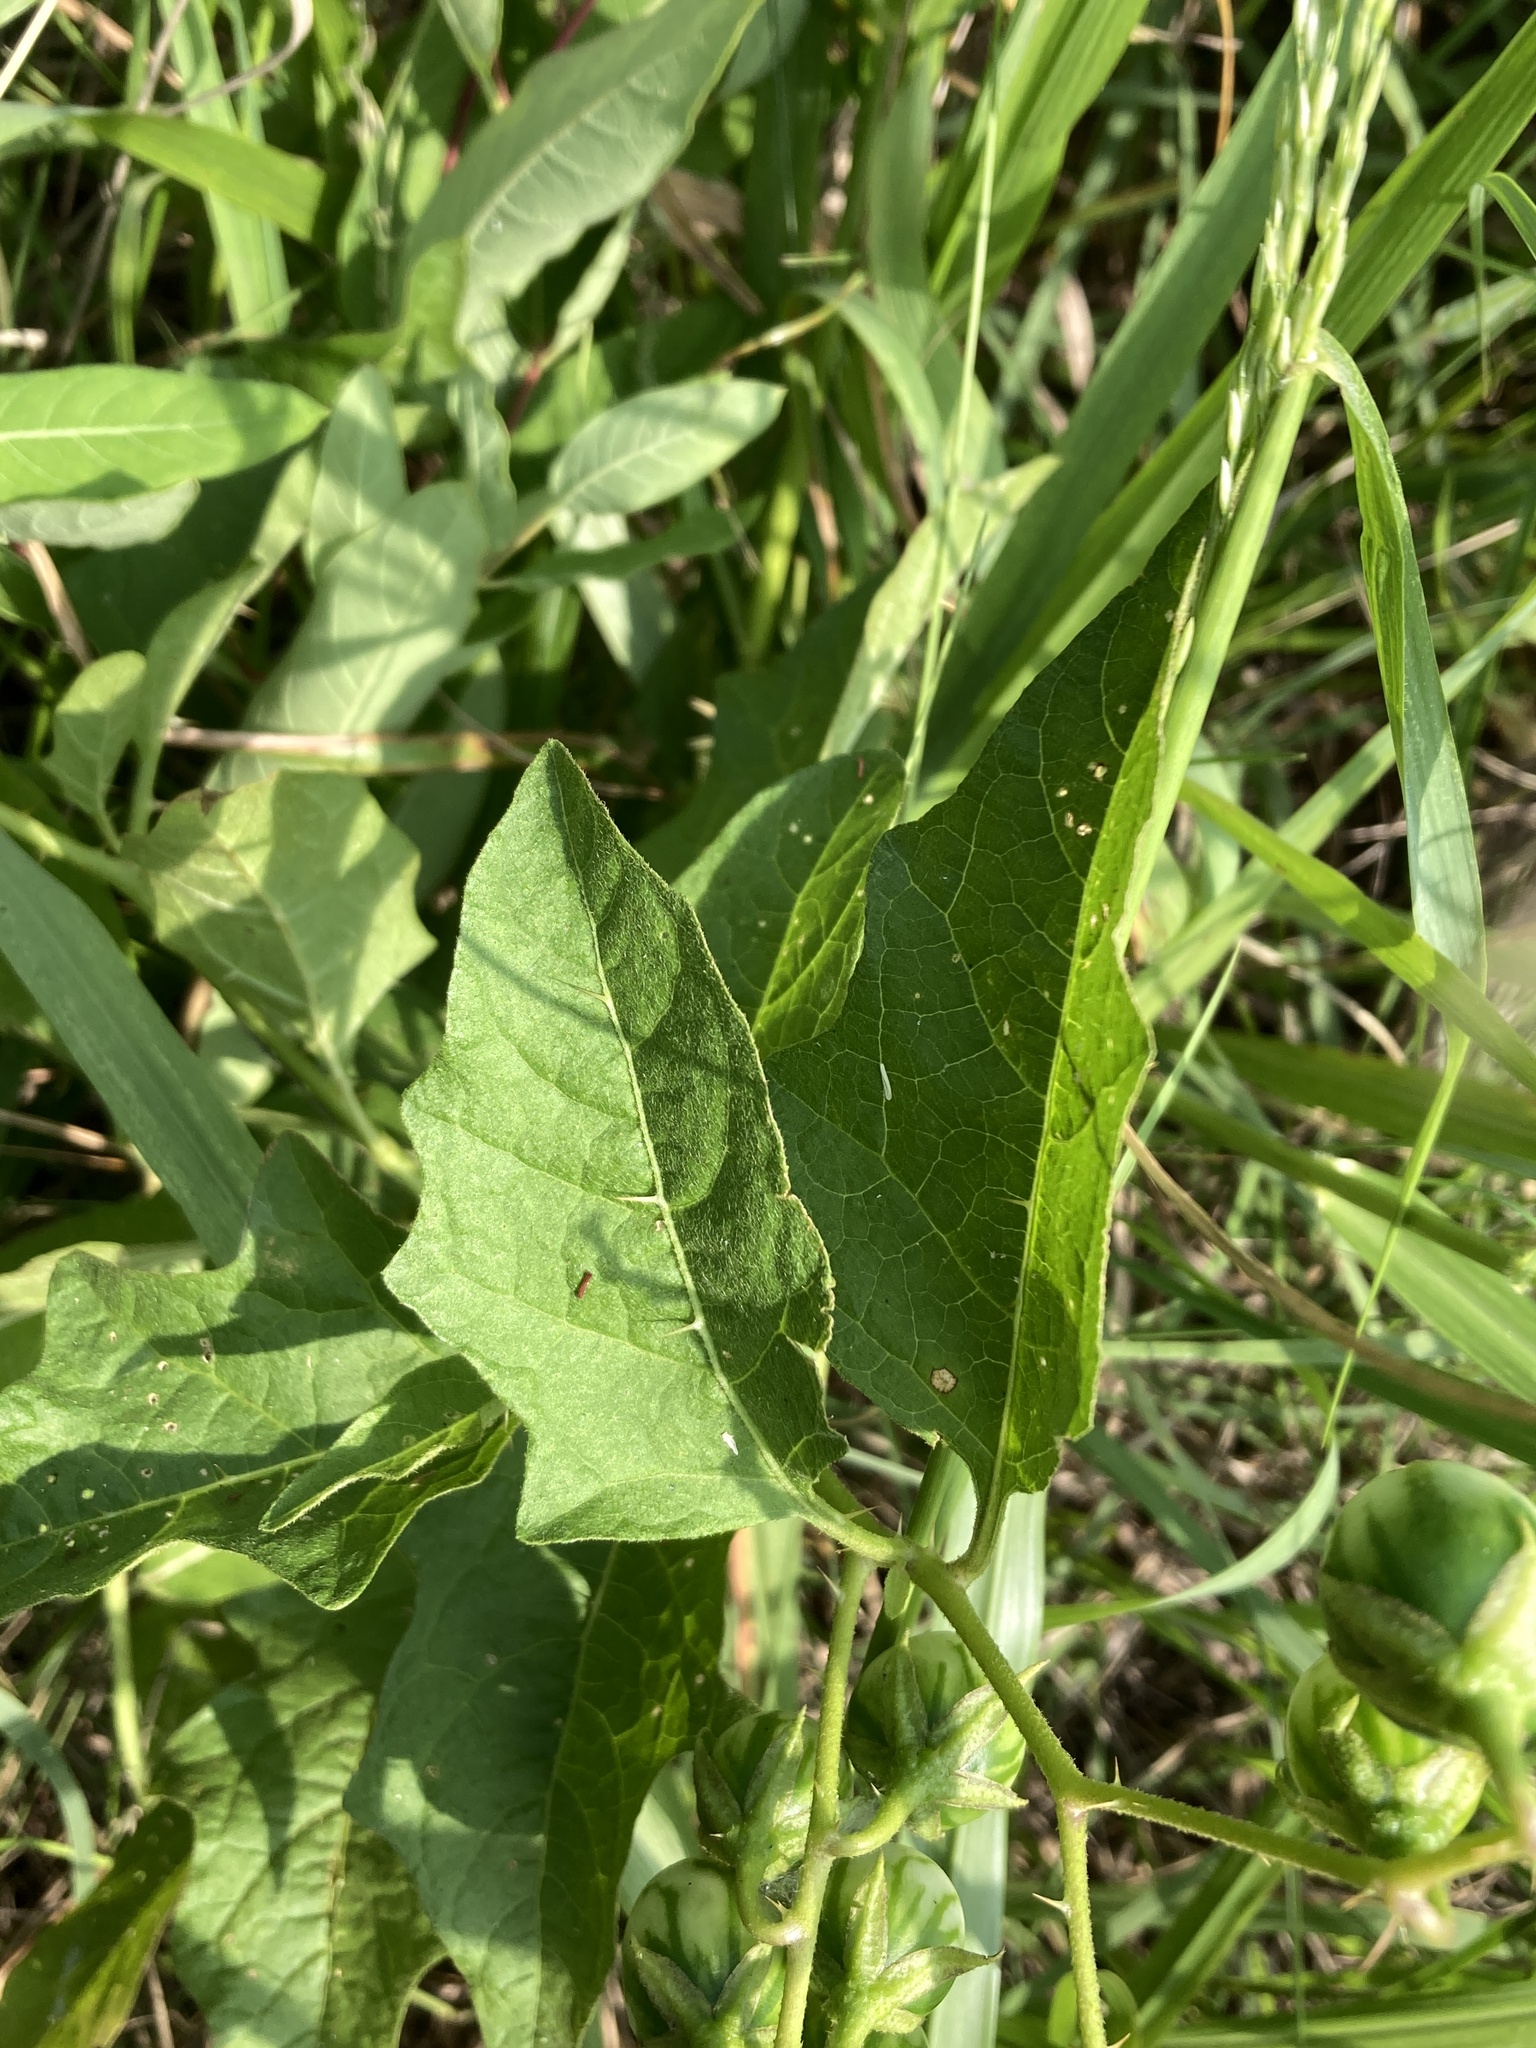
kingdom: Plantae
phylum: Tracheophyta
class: Magnoliopsida
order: Solanales
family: Solanaceae
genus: Solanum
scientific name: Solanum carolinense
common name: Horse-nettle
